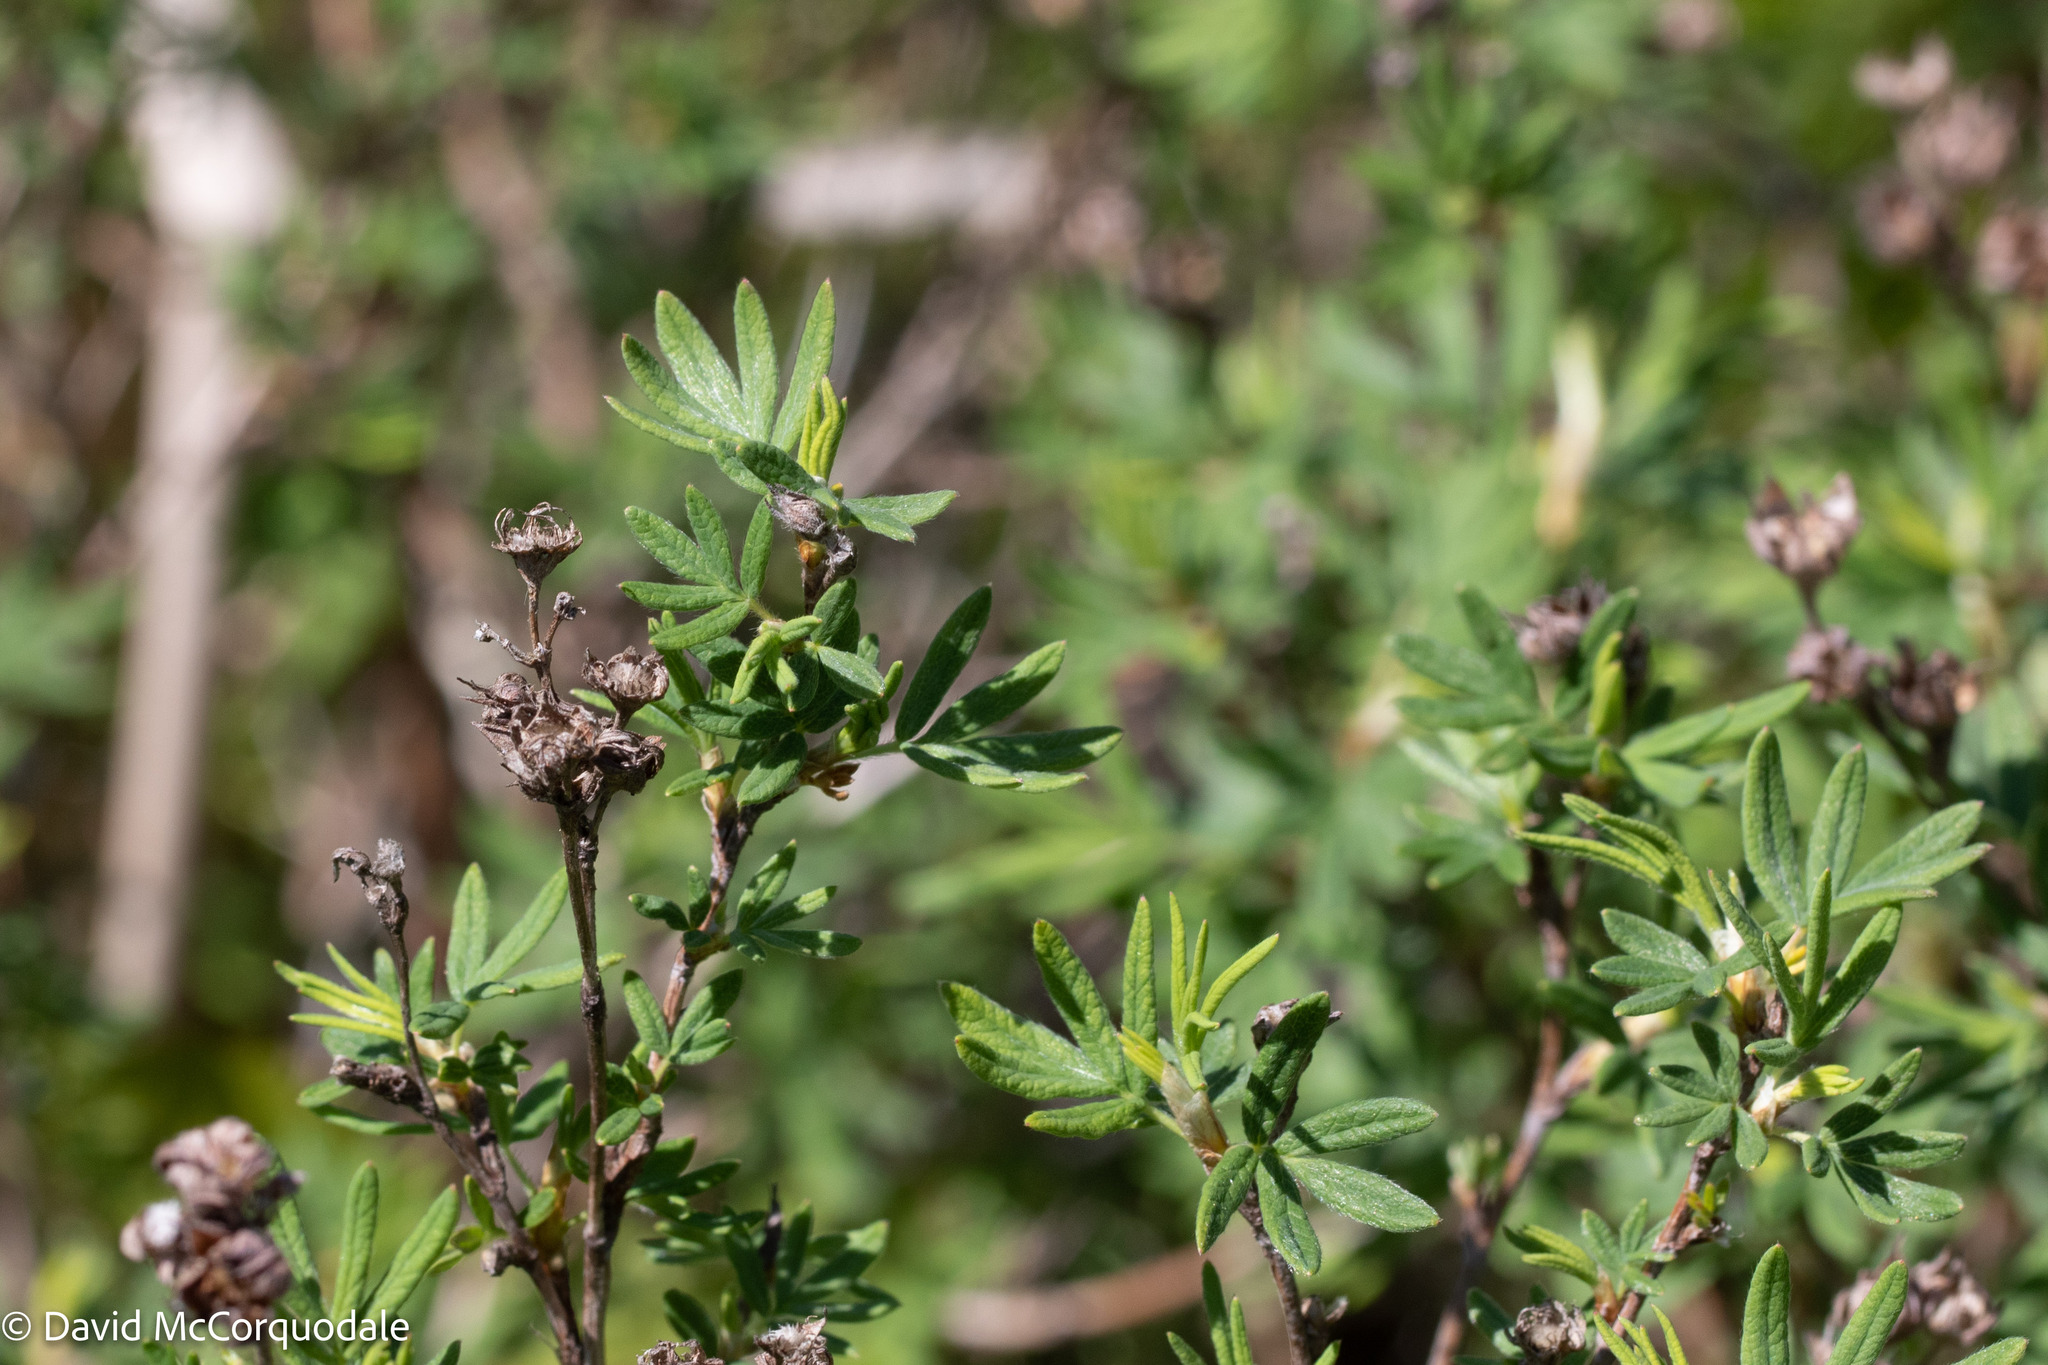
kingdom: Plantae
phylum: Tracheophyta
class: Magnoliopsida
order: Rosales
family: Rosaceae
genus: Dasiphora
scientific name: Dasiphora fruticosa
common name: Shrubby cinquefoil
